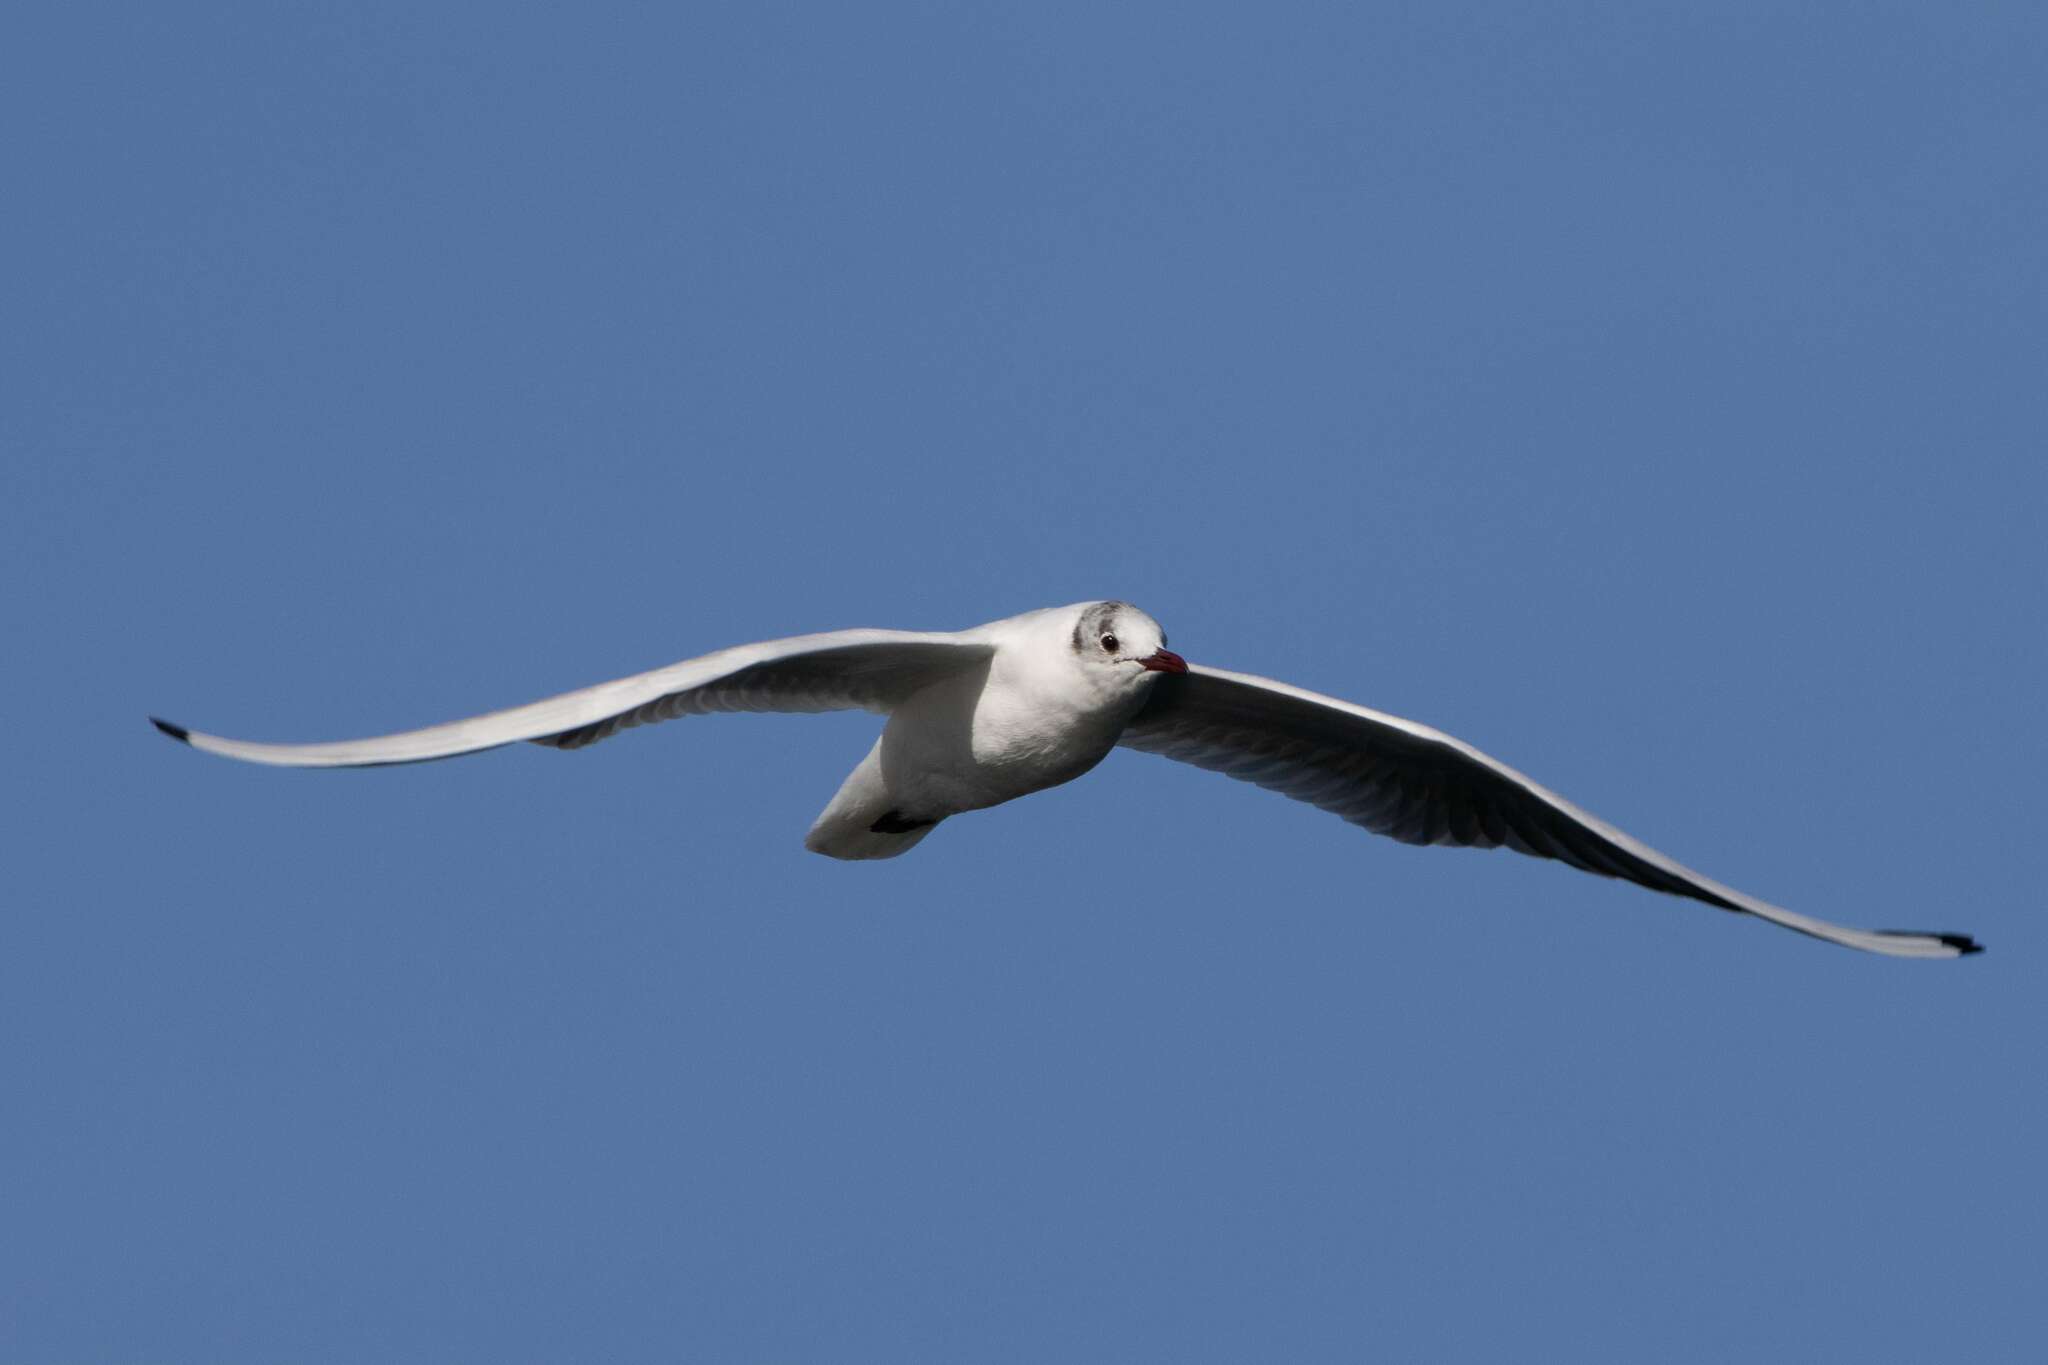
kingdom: Animalia
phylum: Chordata
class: Aves
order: Charadriiformes
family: Laridae
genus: Chroicocephalus
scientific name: Chroicocephalus ridibundus
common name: Black-headed gull
